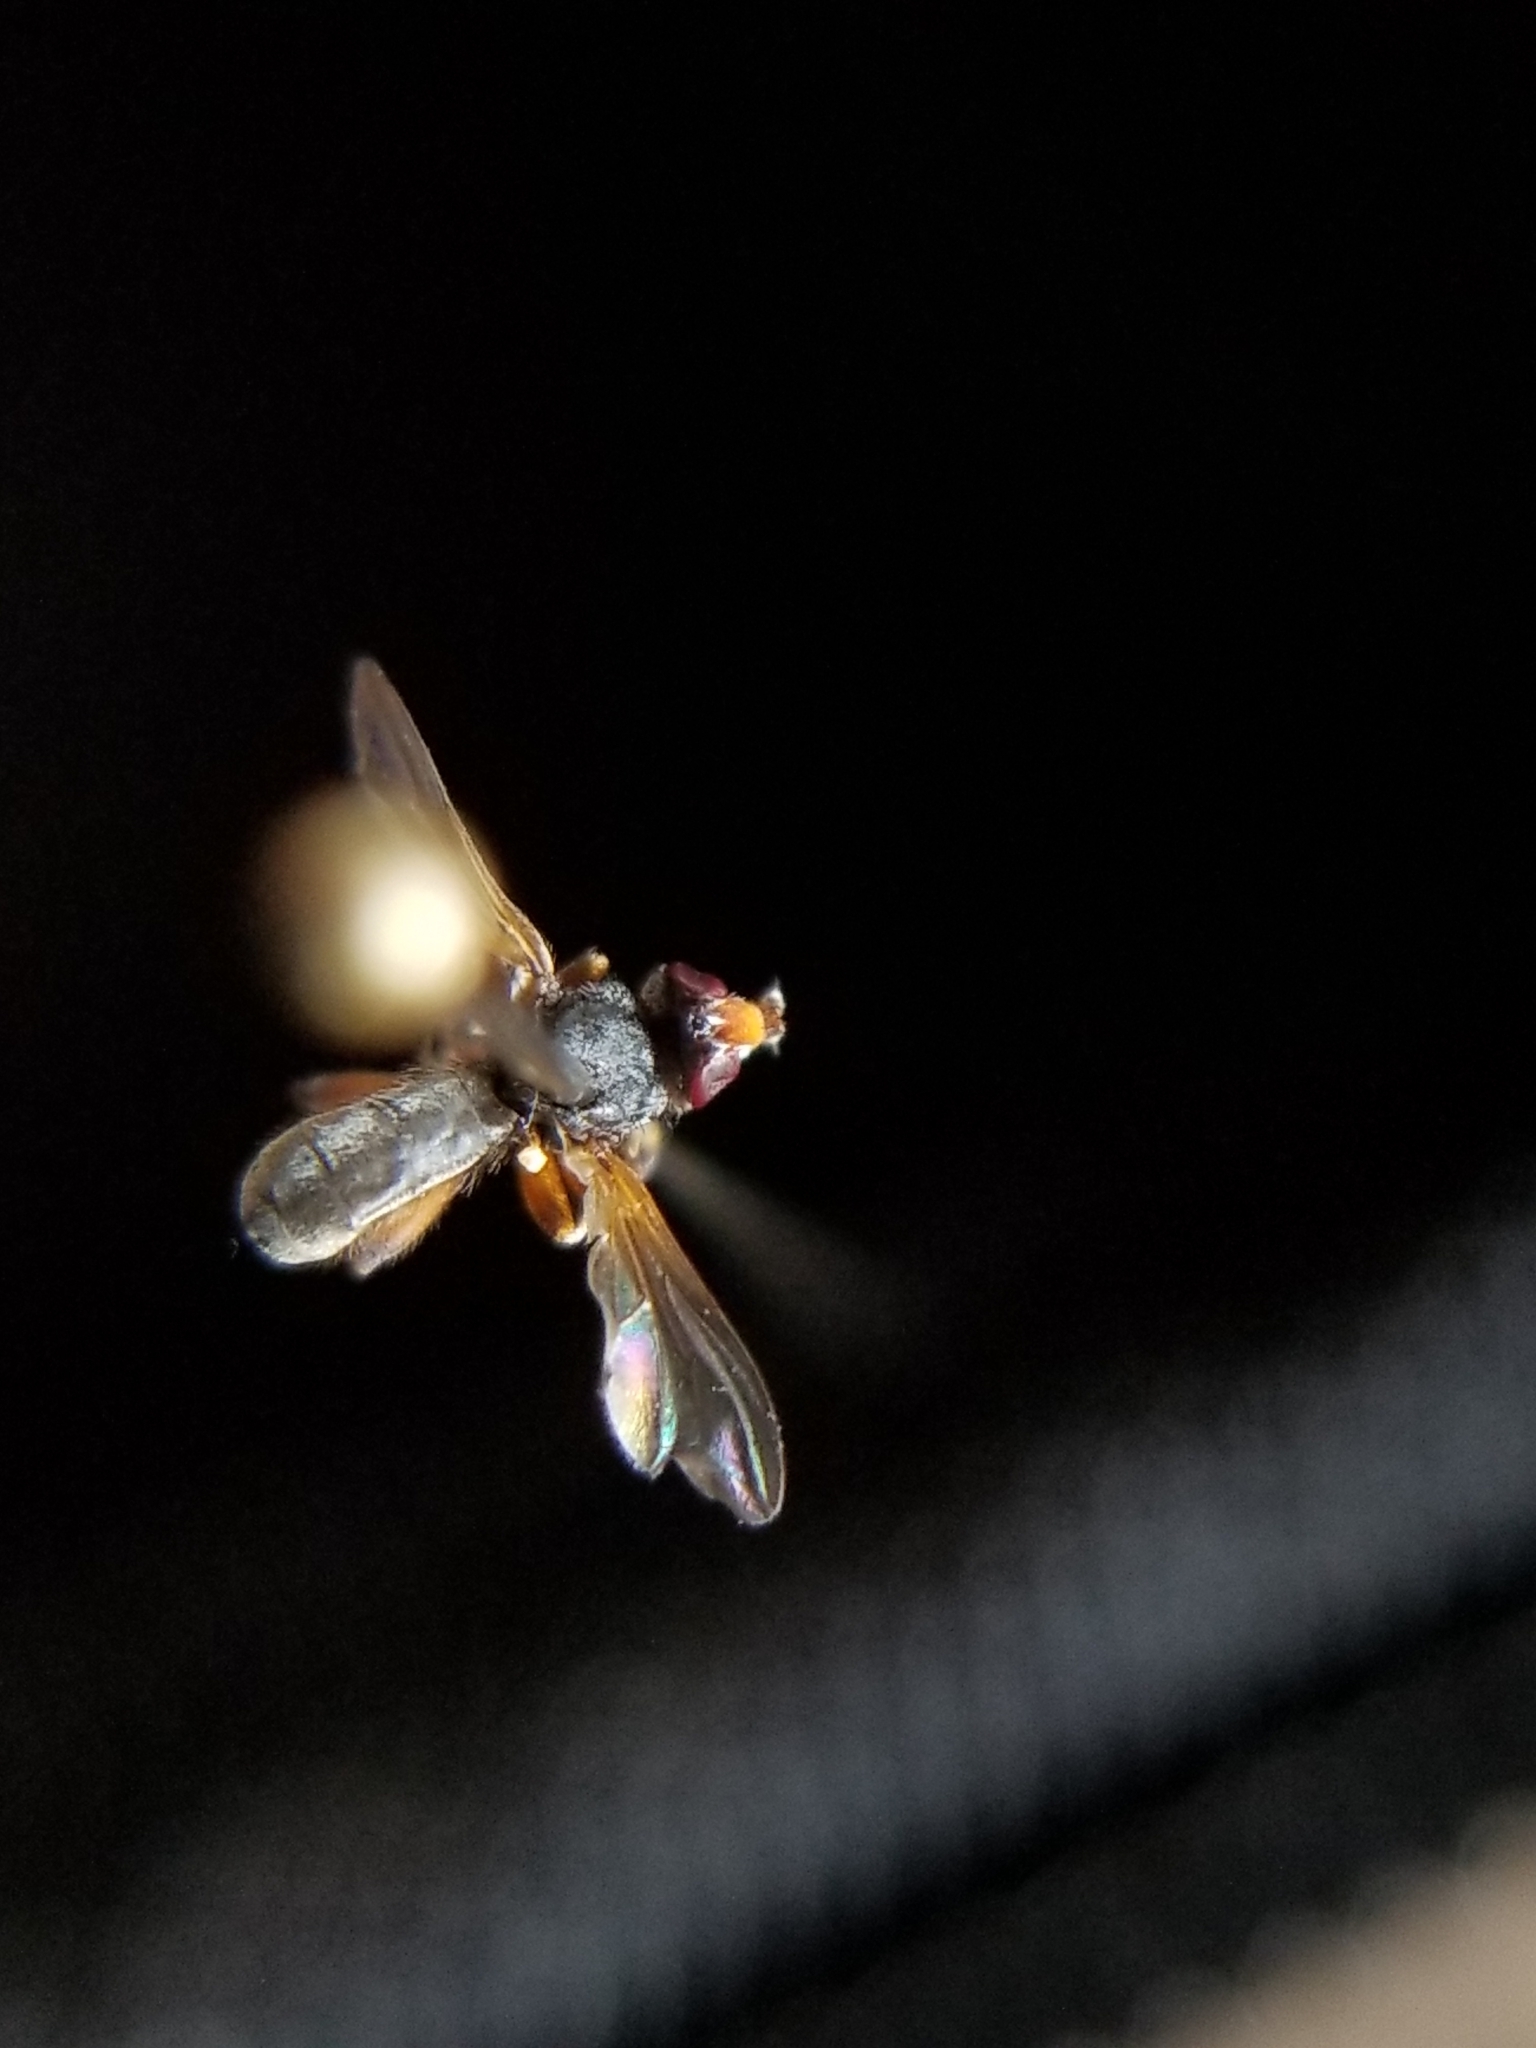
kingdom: Animalia
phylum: Arthropoda
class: Insecta
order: Diptera
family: Conopidae
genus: Thecophora
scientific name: Thecophora modesta
